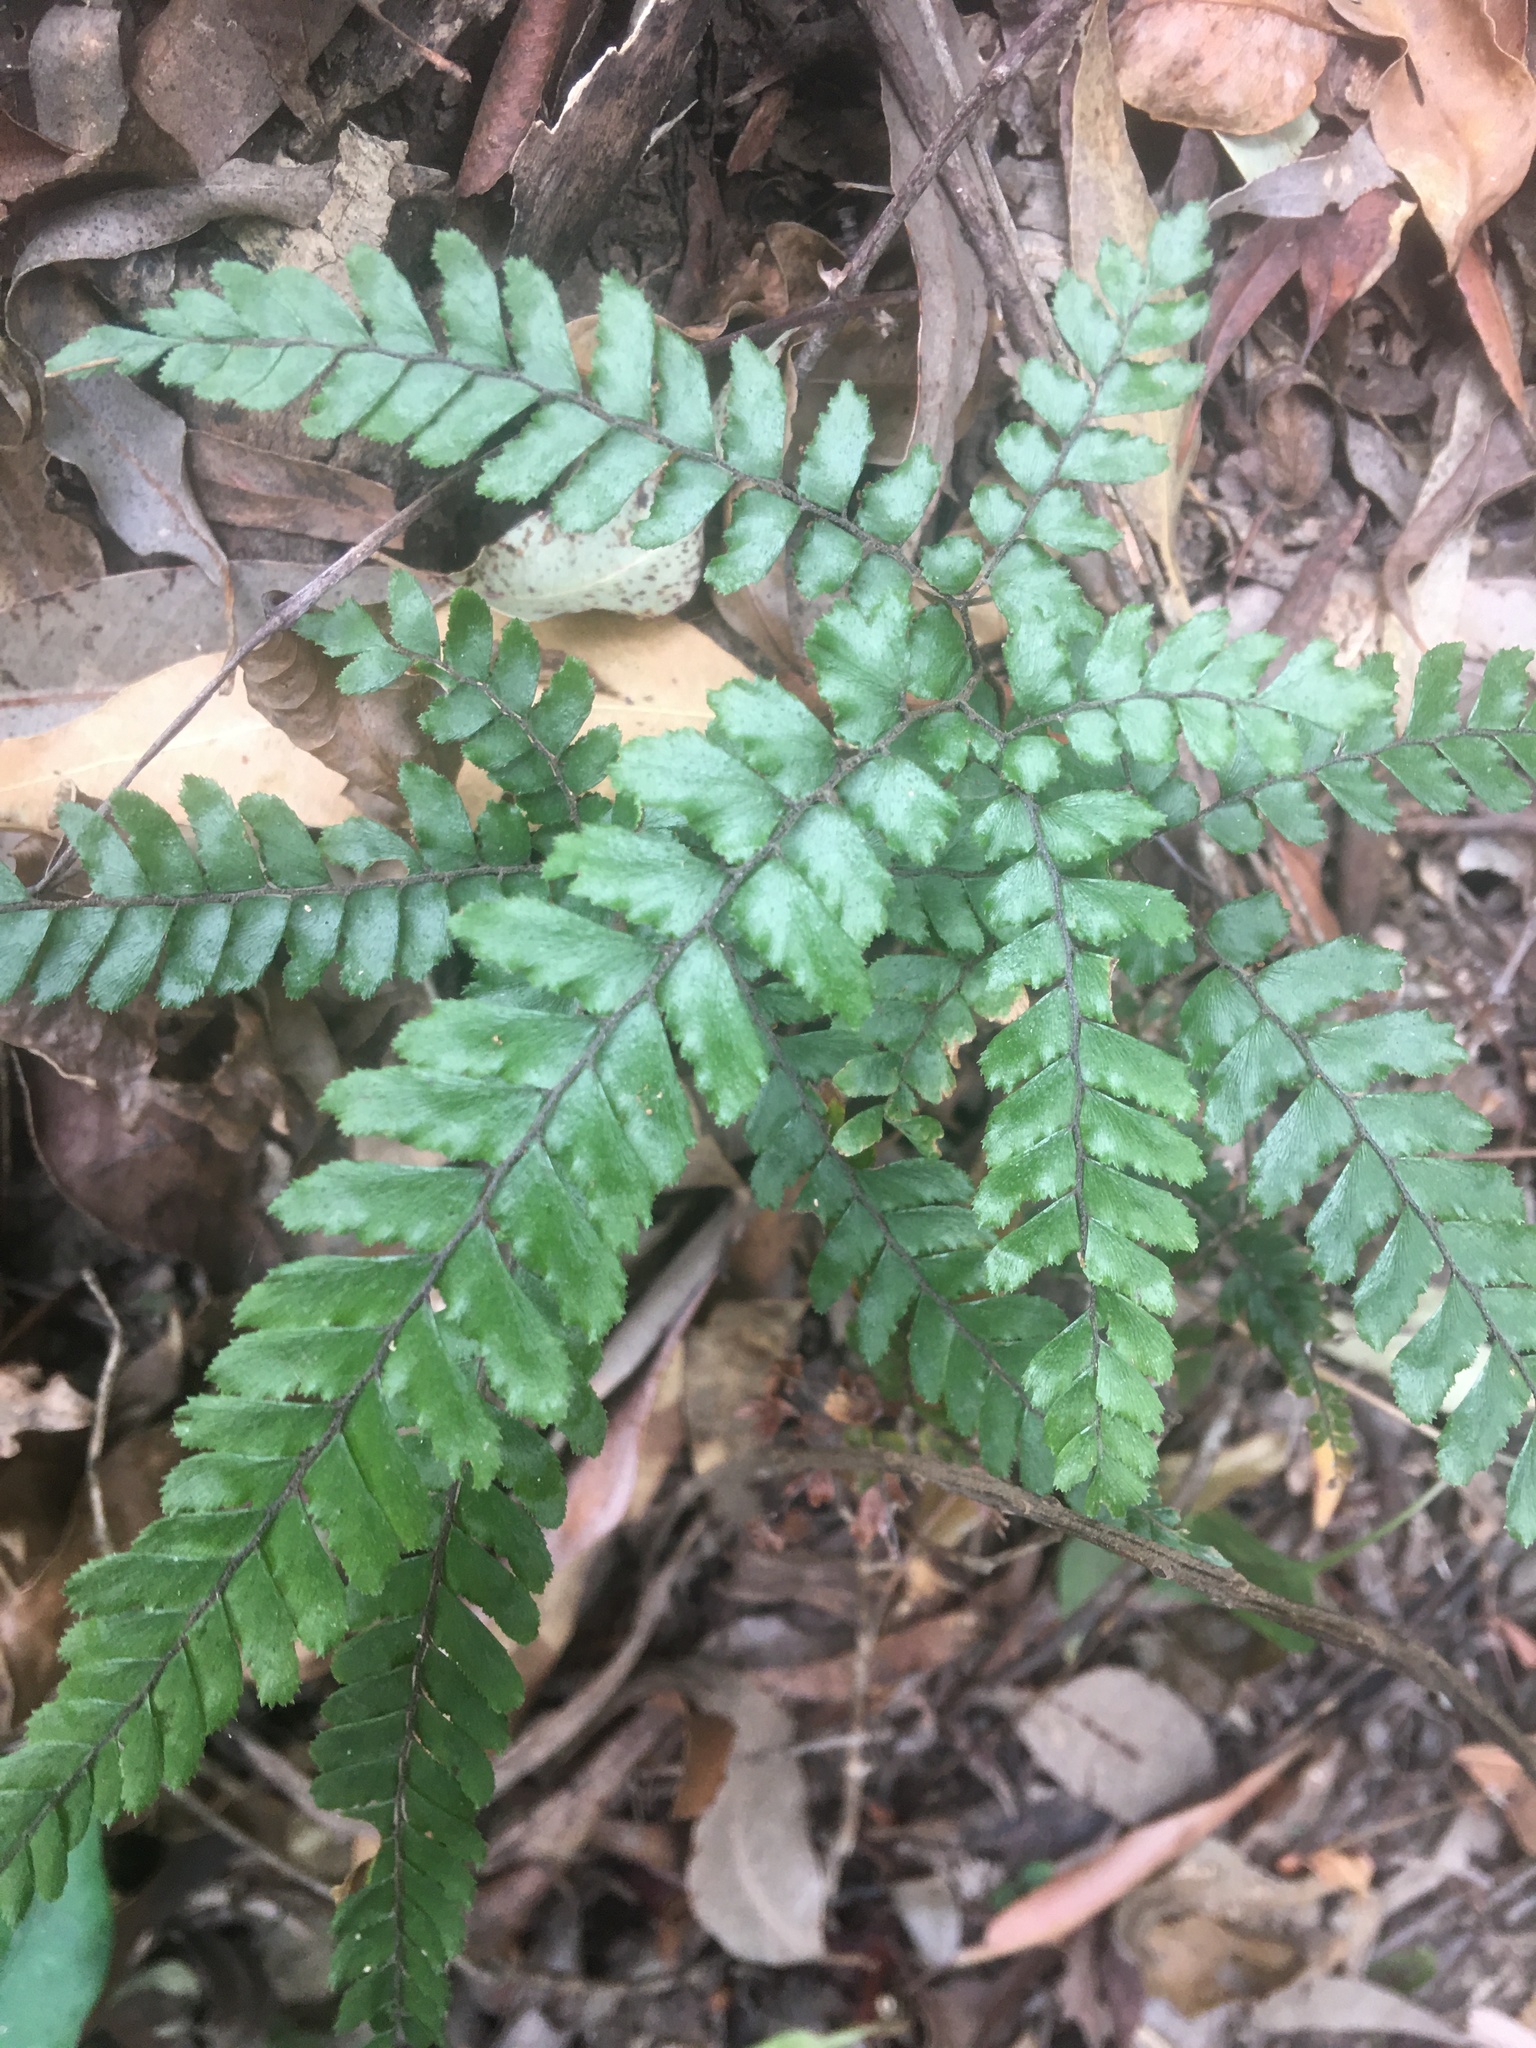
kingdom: Plantae
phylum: Tracheophyta
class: Polypodiopsida
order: Polypodiales
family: Pteridaceae
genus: Adiantum
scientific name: Adiantum hispidulum
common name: Rough maidenhair
